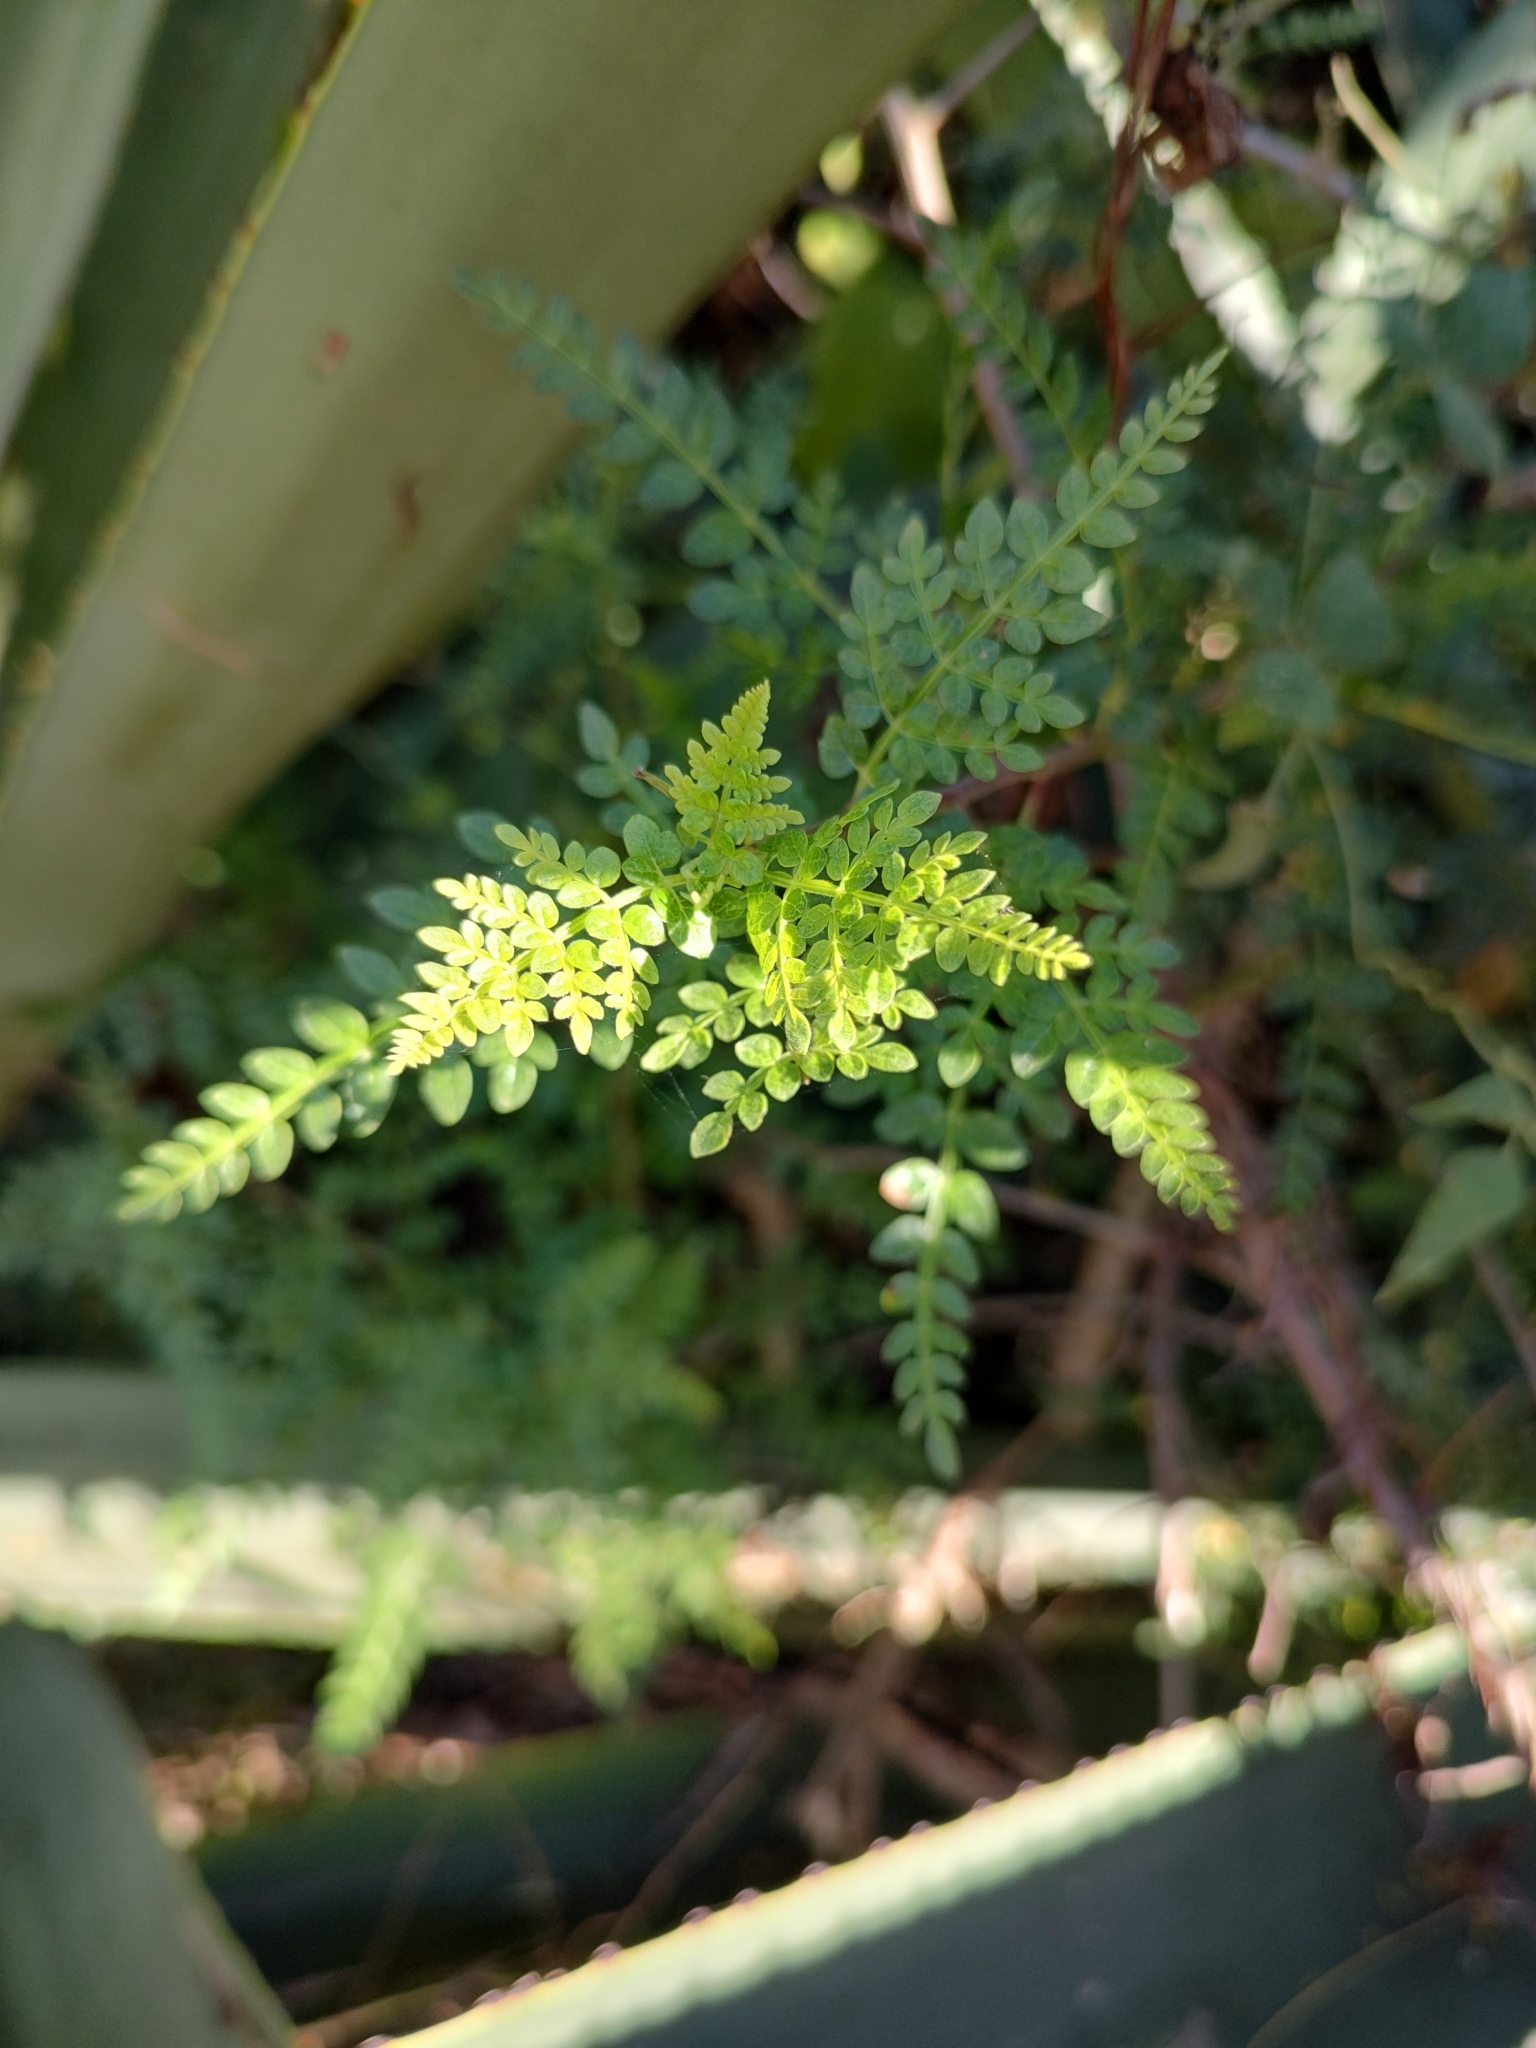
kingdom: Plantae
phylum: Tracheophyta
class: Magnoliopsida
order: Sapindales
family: Burseraceae
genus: Bursera
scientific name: Bursera bipinnata
